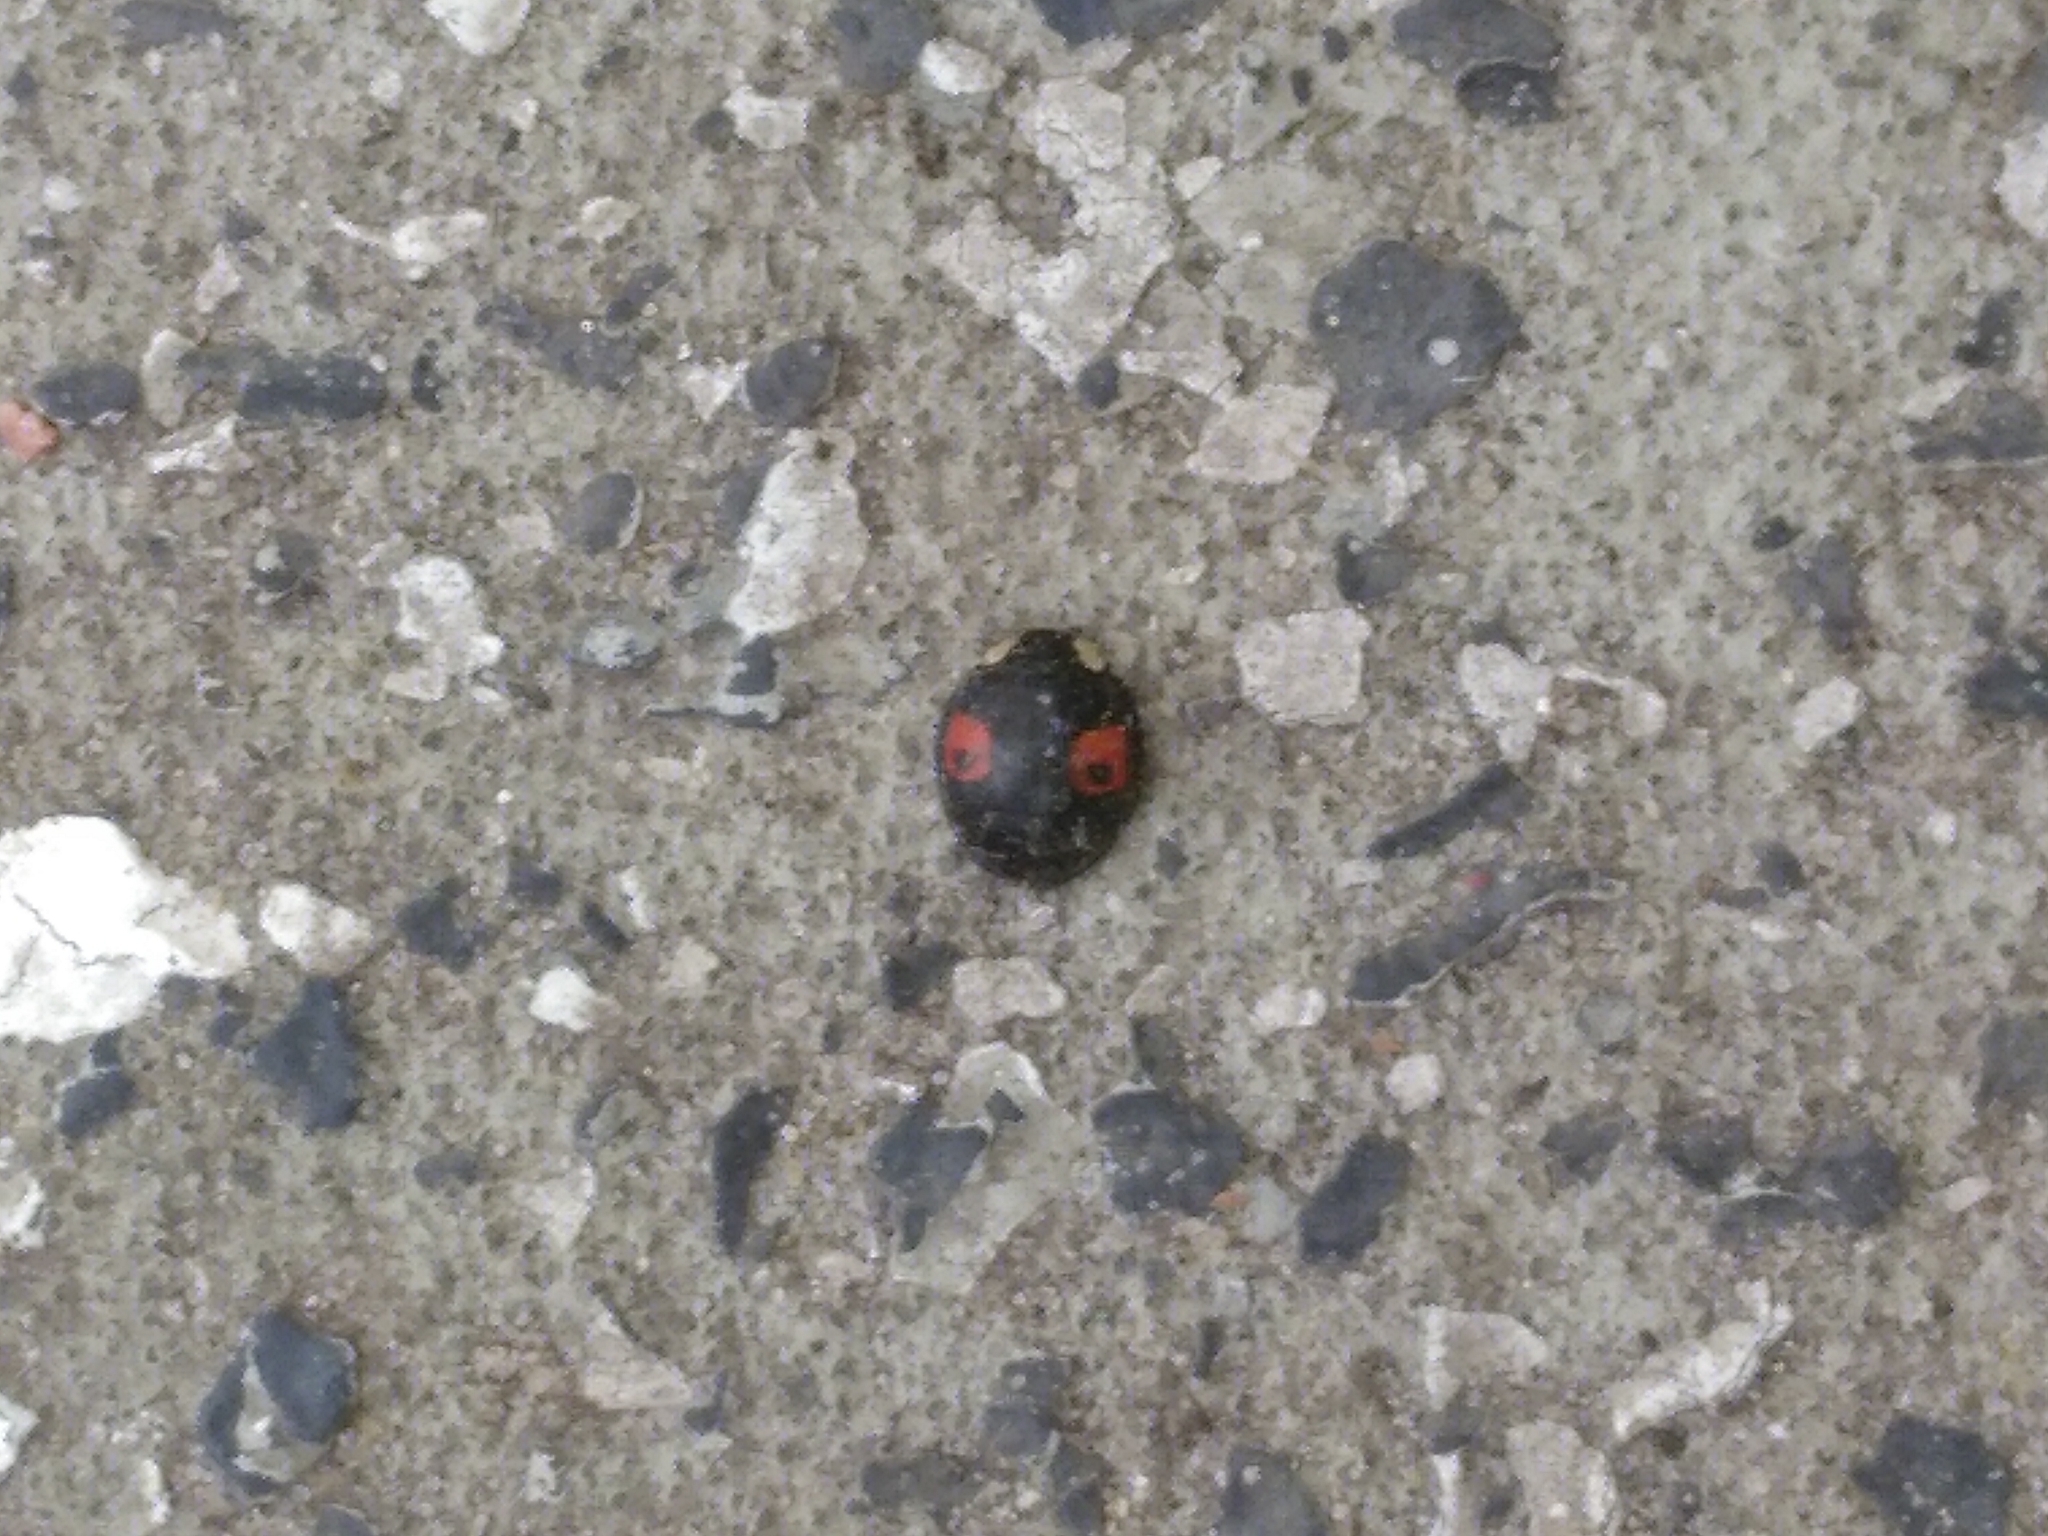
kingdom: Animalia
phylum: Arthropoda
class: Insecta
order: Coleoptera
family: Coccinellidae
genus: Harmonia
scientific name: Harmonia axyridis
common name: Harlequin ladybird
